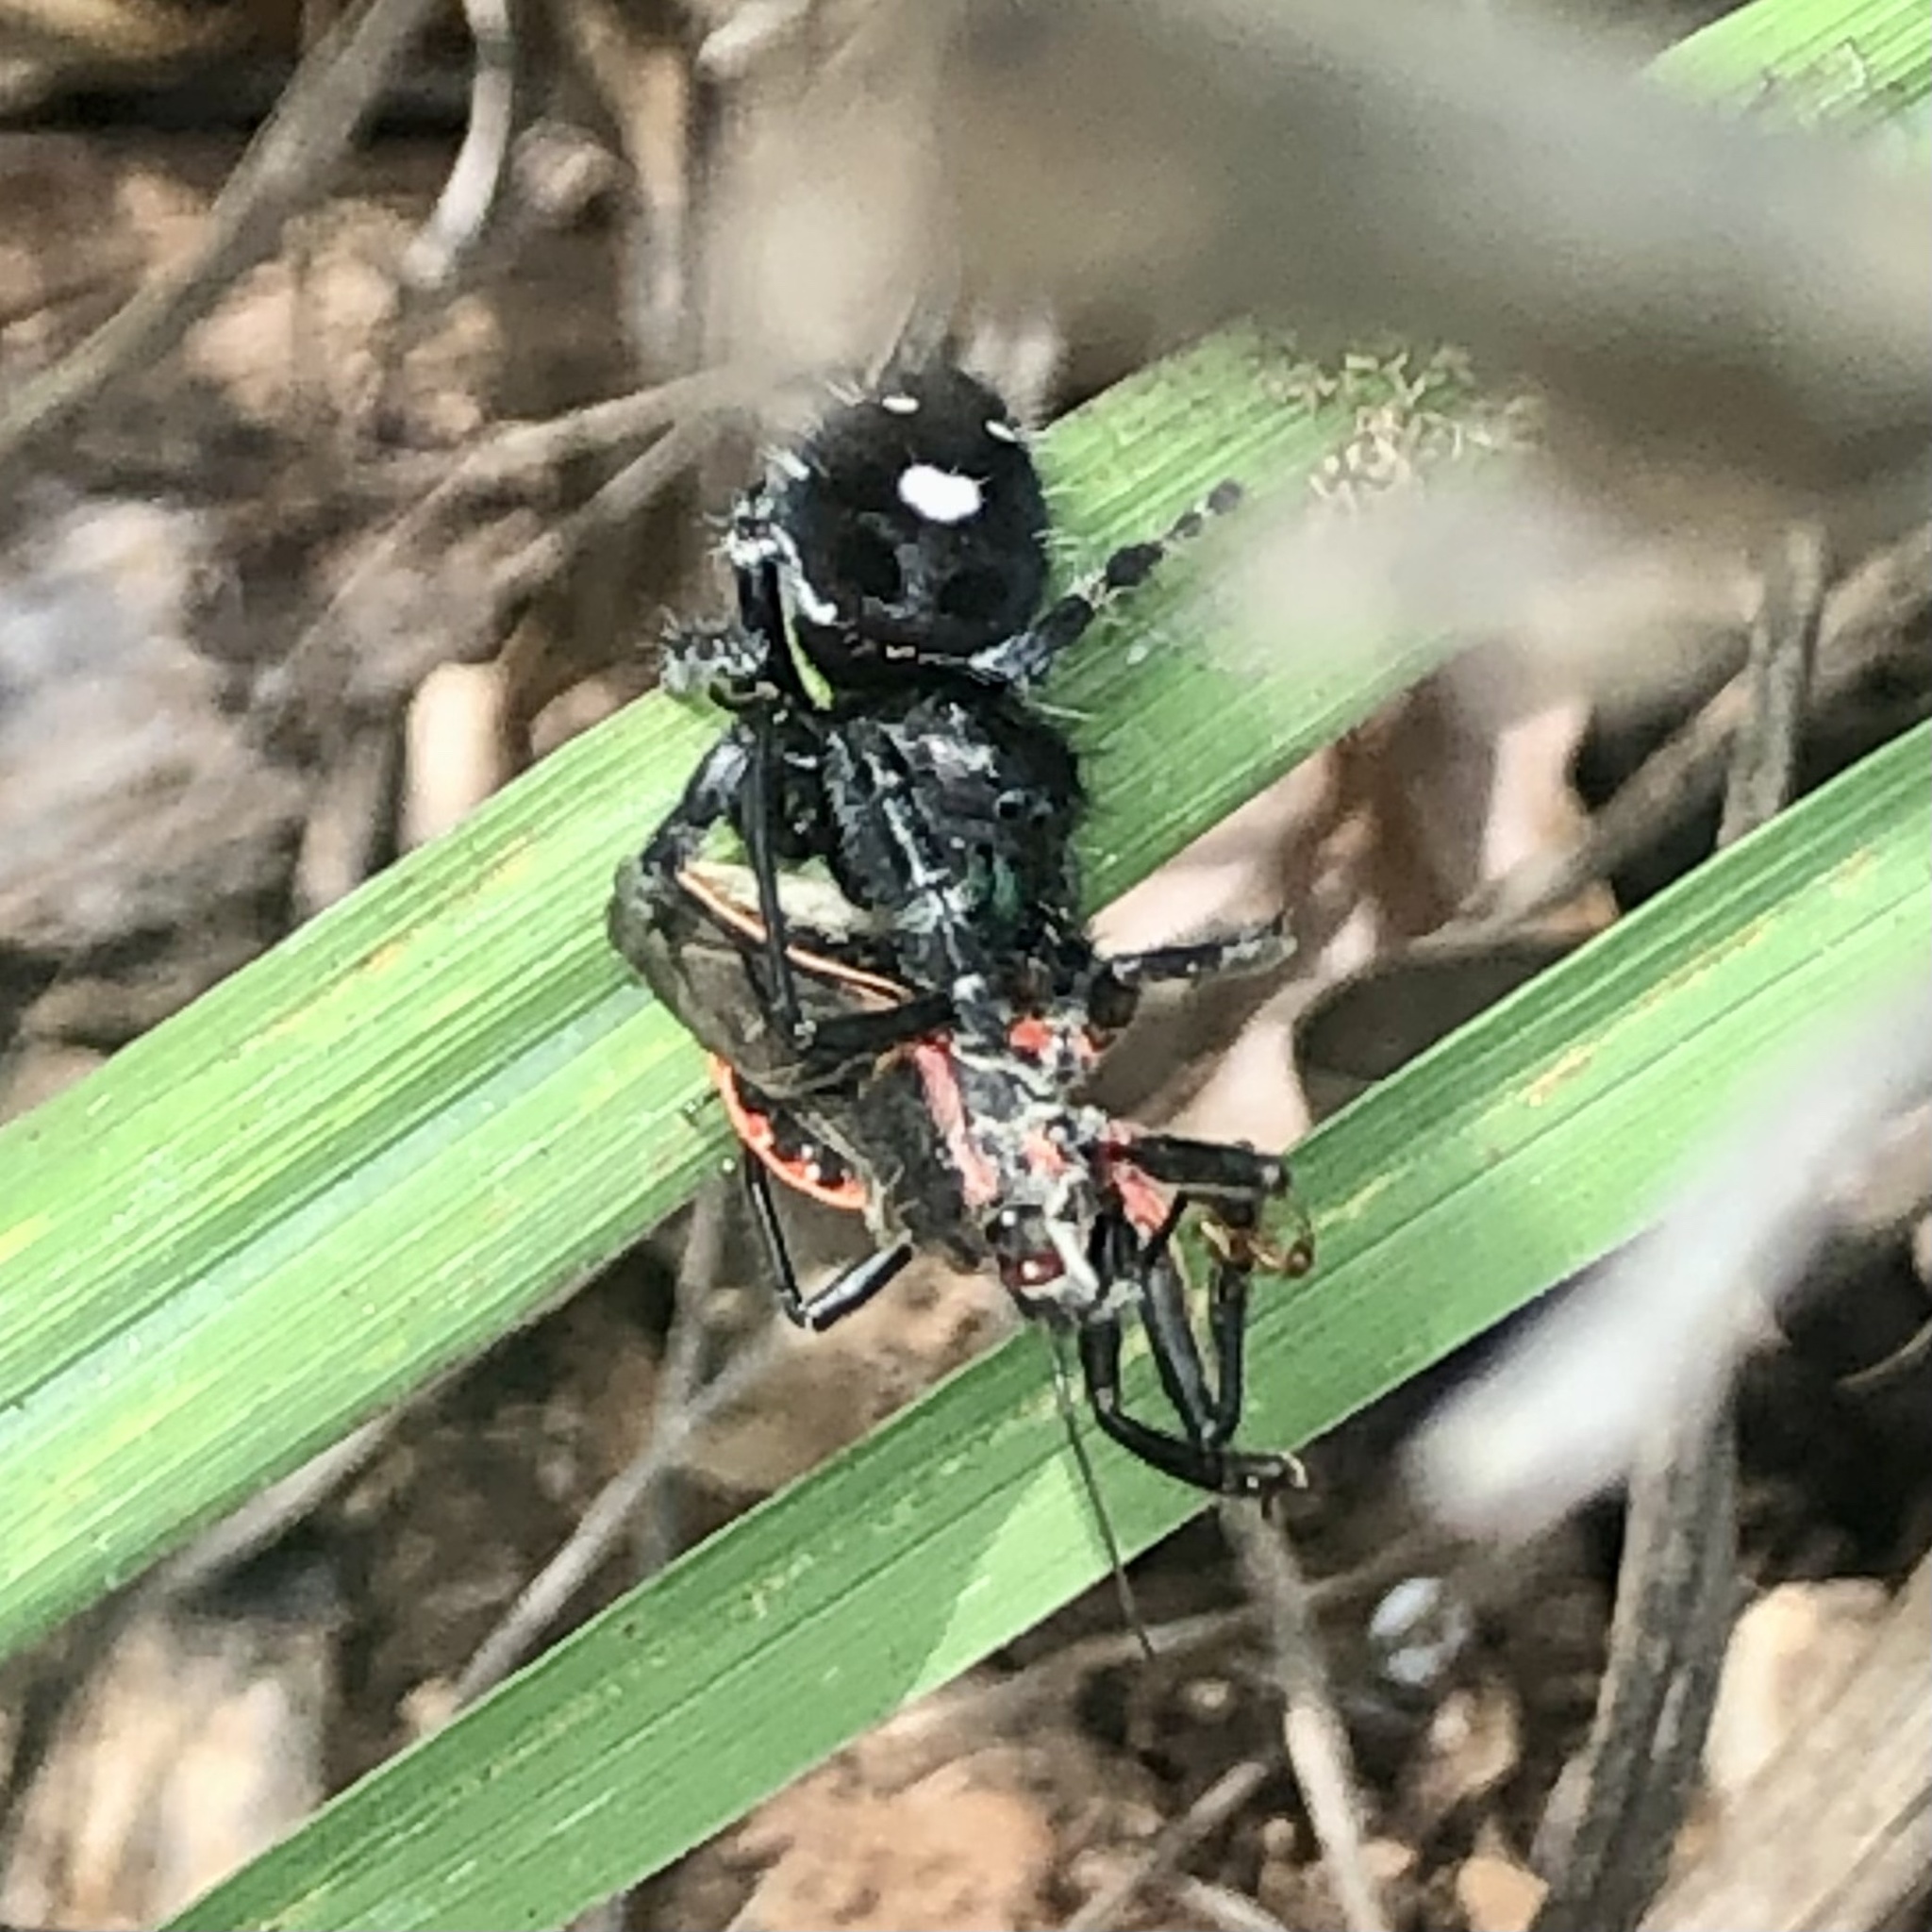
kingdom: Animalia
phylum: Arthropoda
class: Arachnida
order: Araneae
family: Salticidae
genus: Phidippus
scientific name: Phidippus audax
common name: Bold jumper
